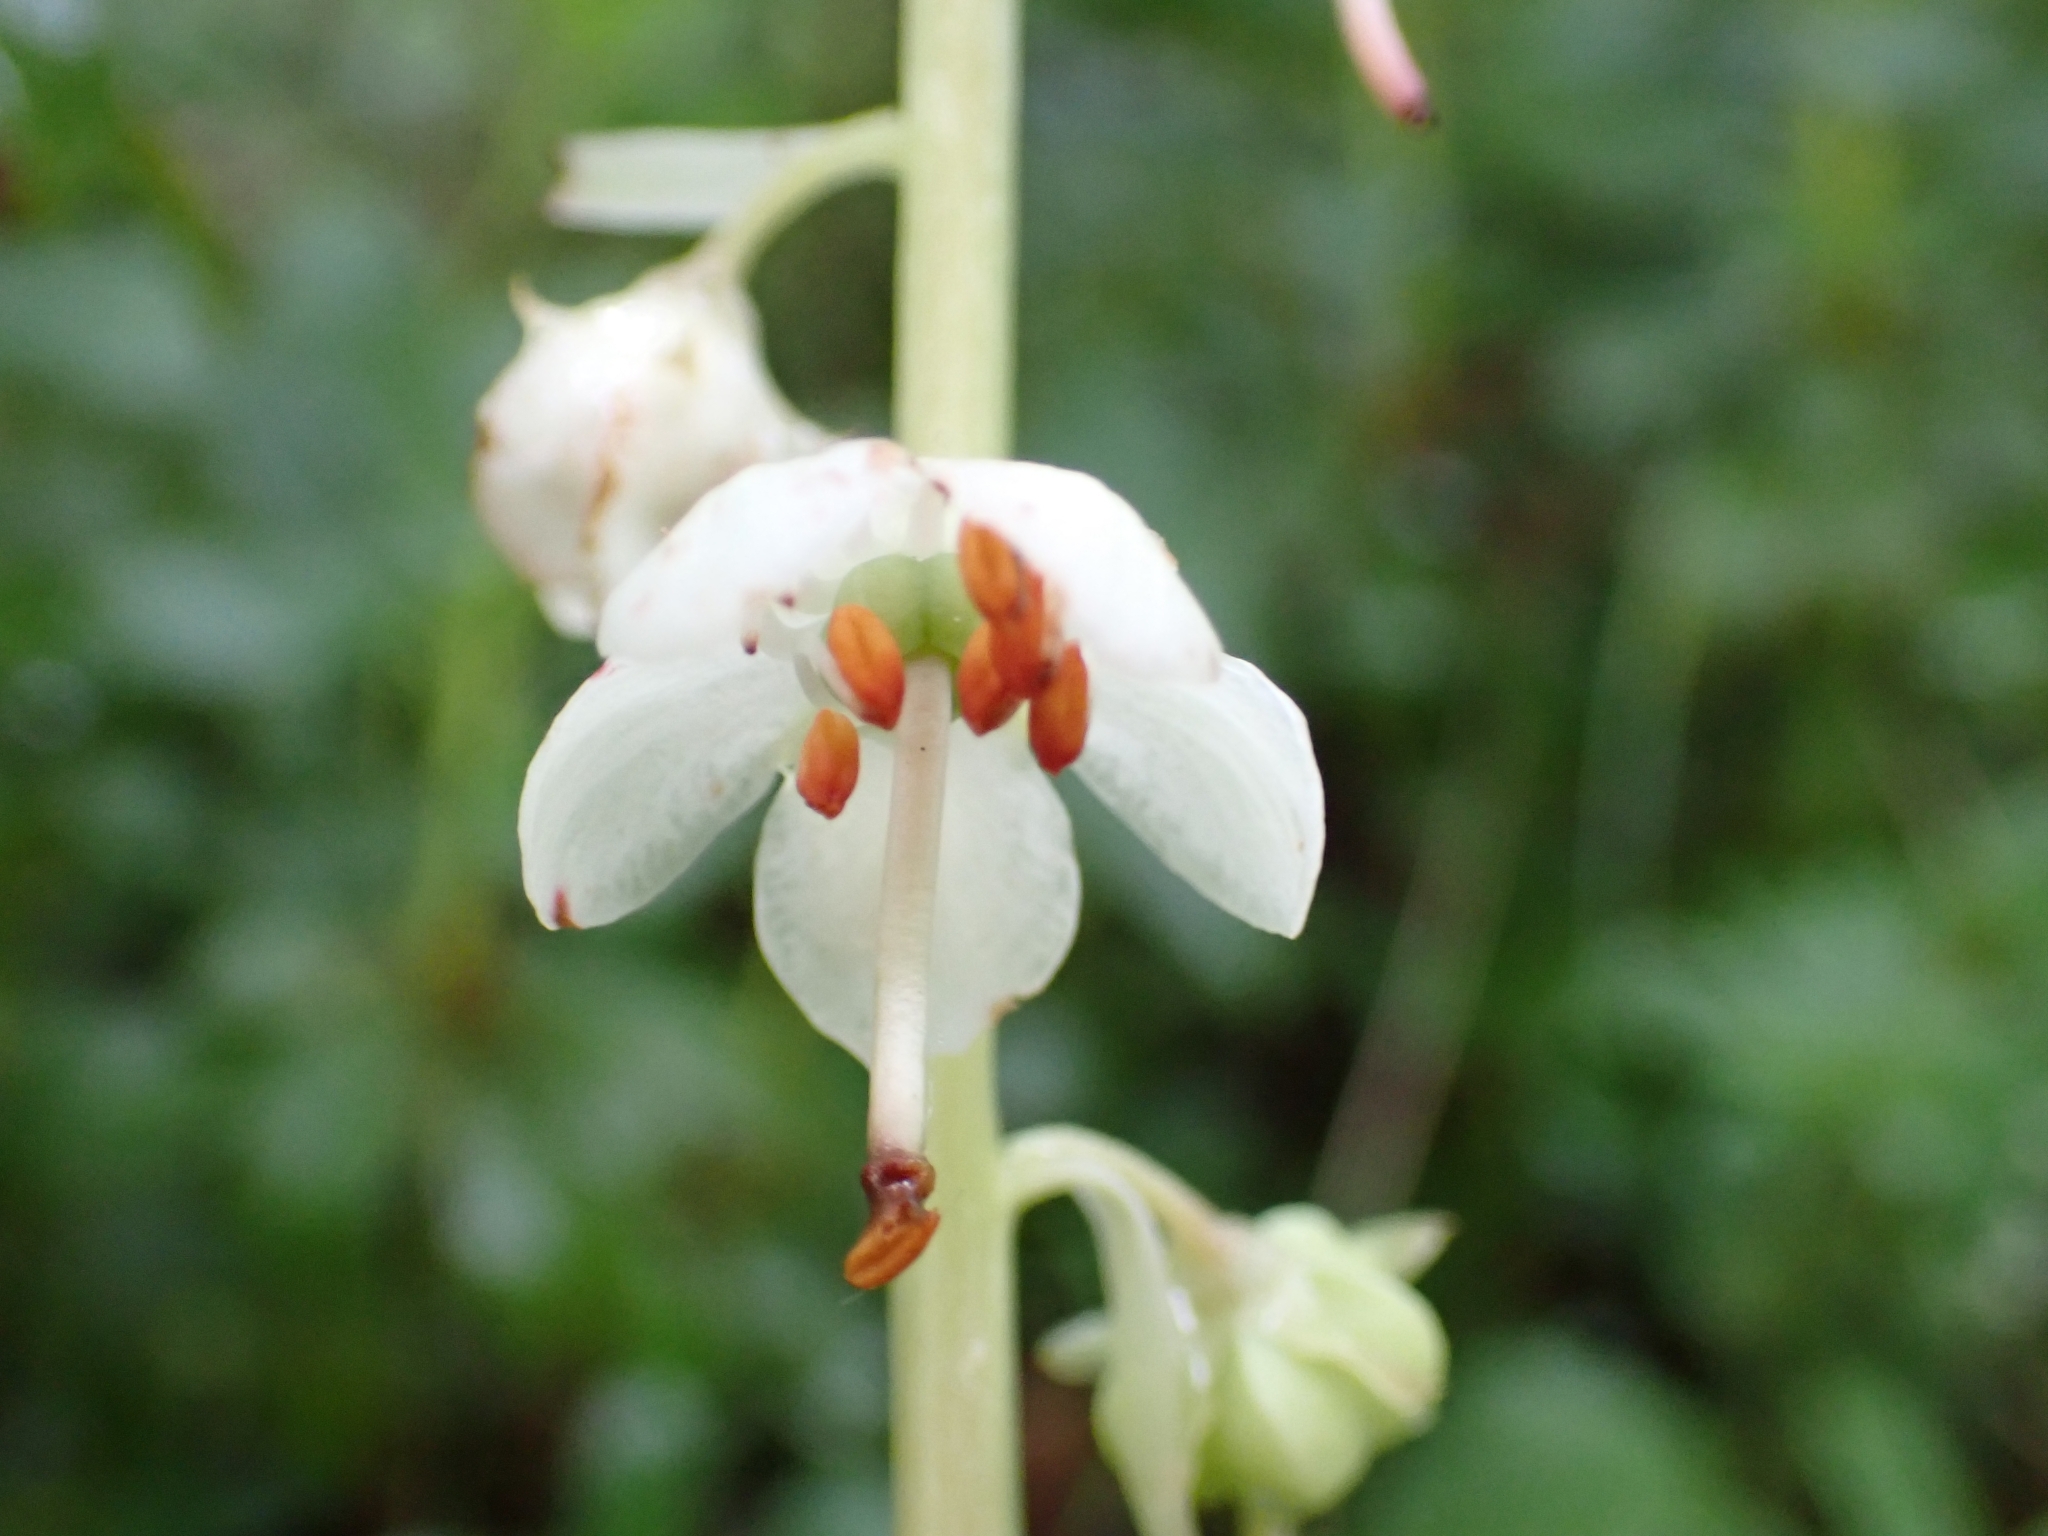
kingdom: Plantae
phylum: Tracheophyta
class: Magnoliopsida
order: Ericales
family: Ericaceae
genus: Pyrola
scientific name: Pyrola rotundifolia
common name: Round-leaved wintergreen
